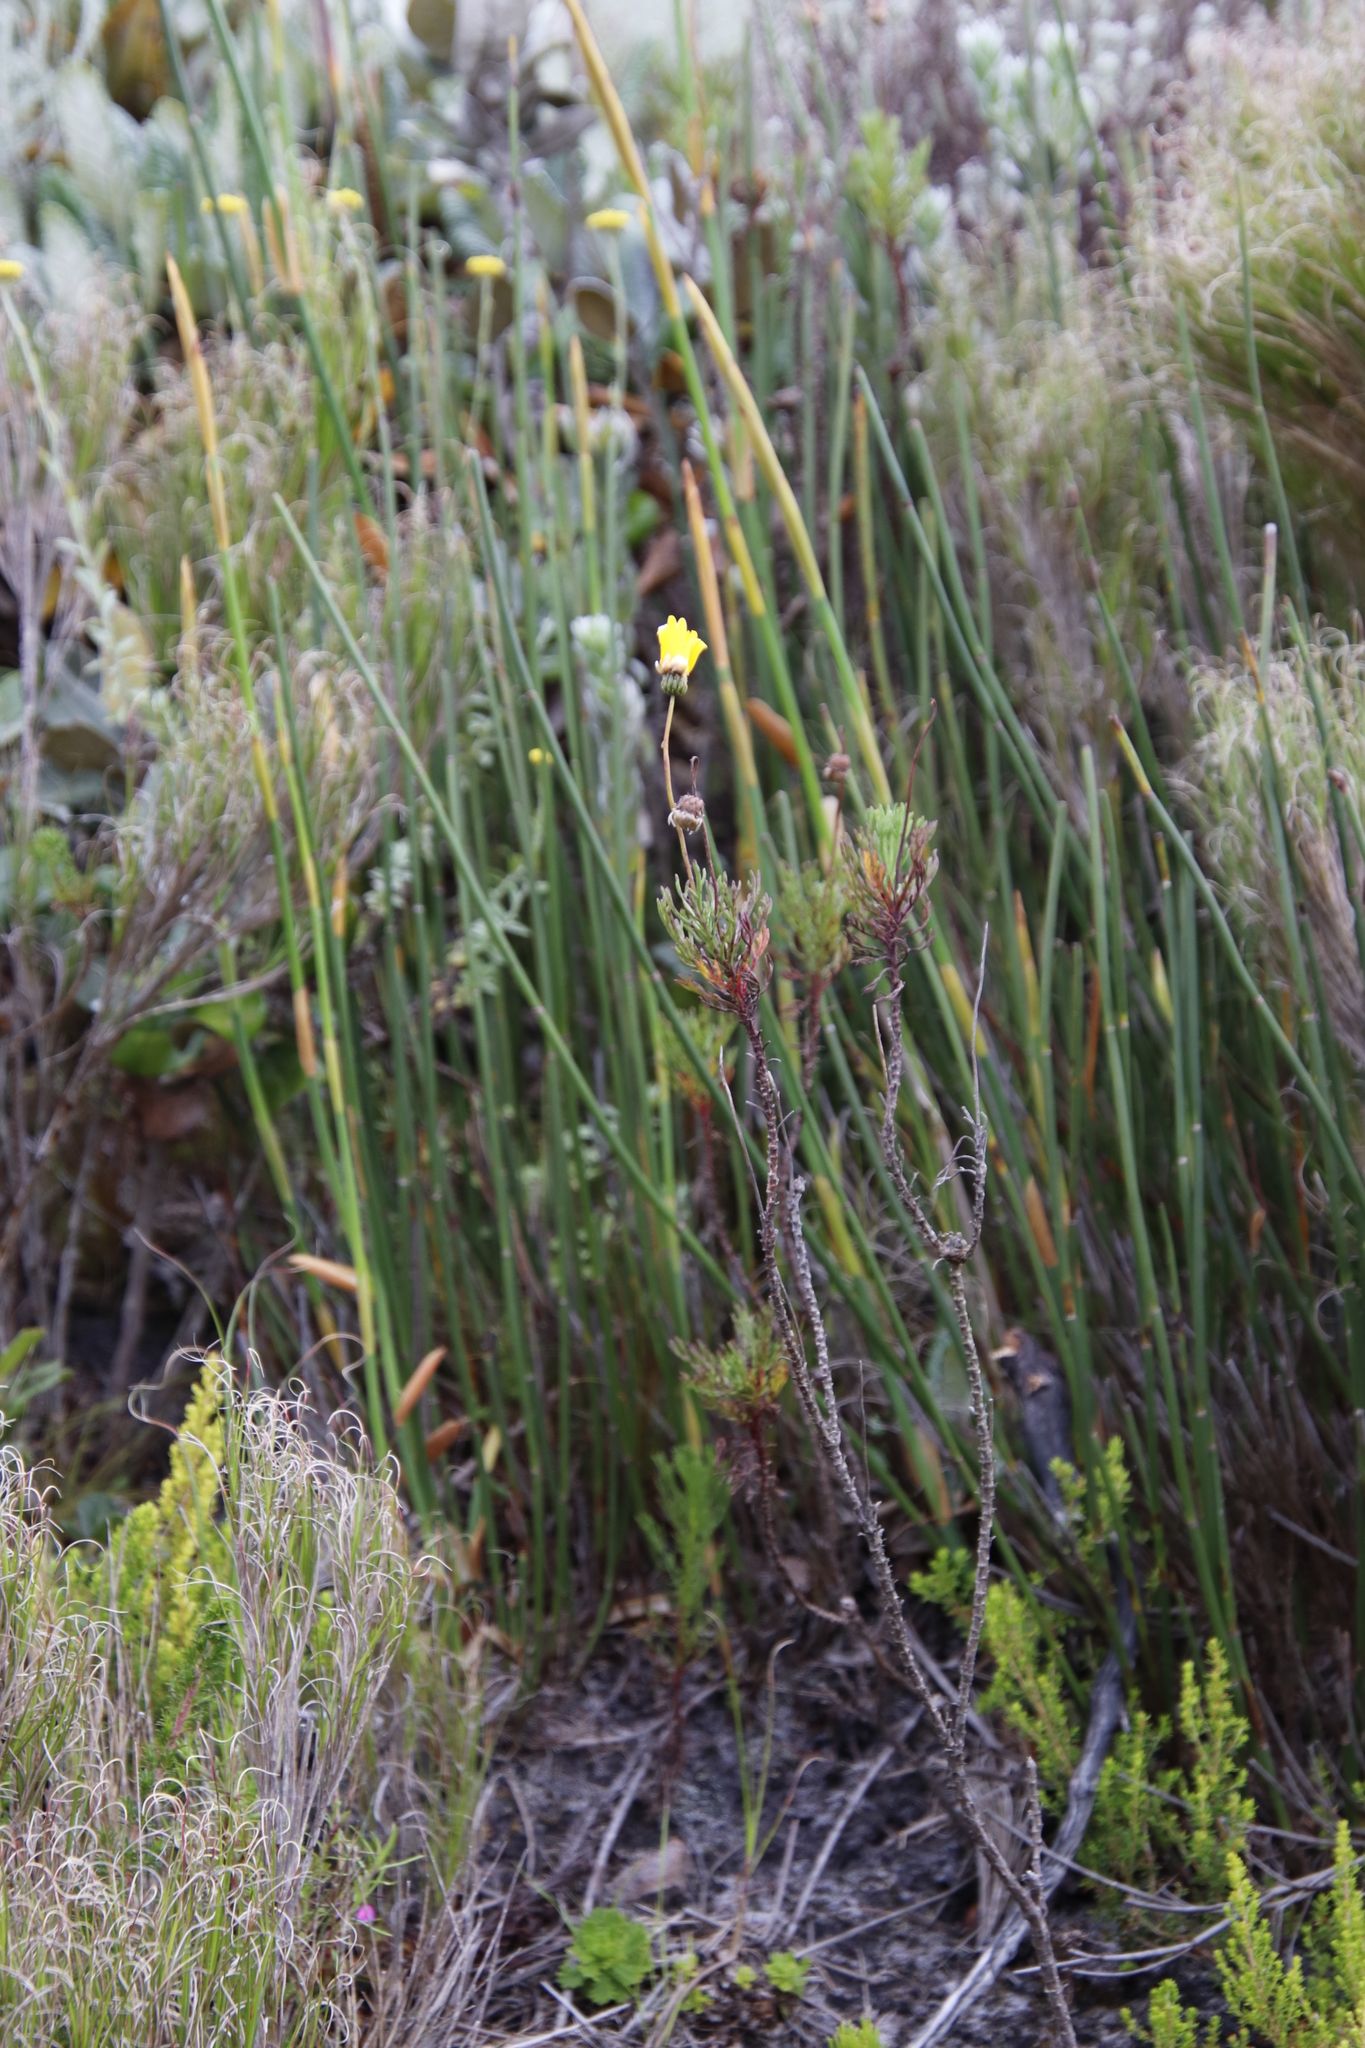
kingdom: Plantae
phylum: Tracheophyta
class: Magnoliopsida
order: Asterales
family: Asteraceae
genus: Euryops
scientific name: Euryops abrotanifolius
